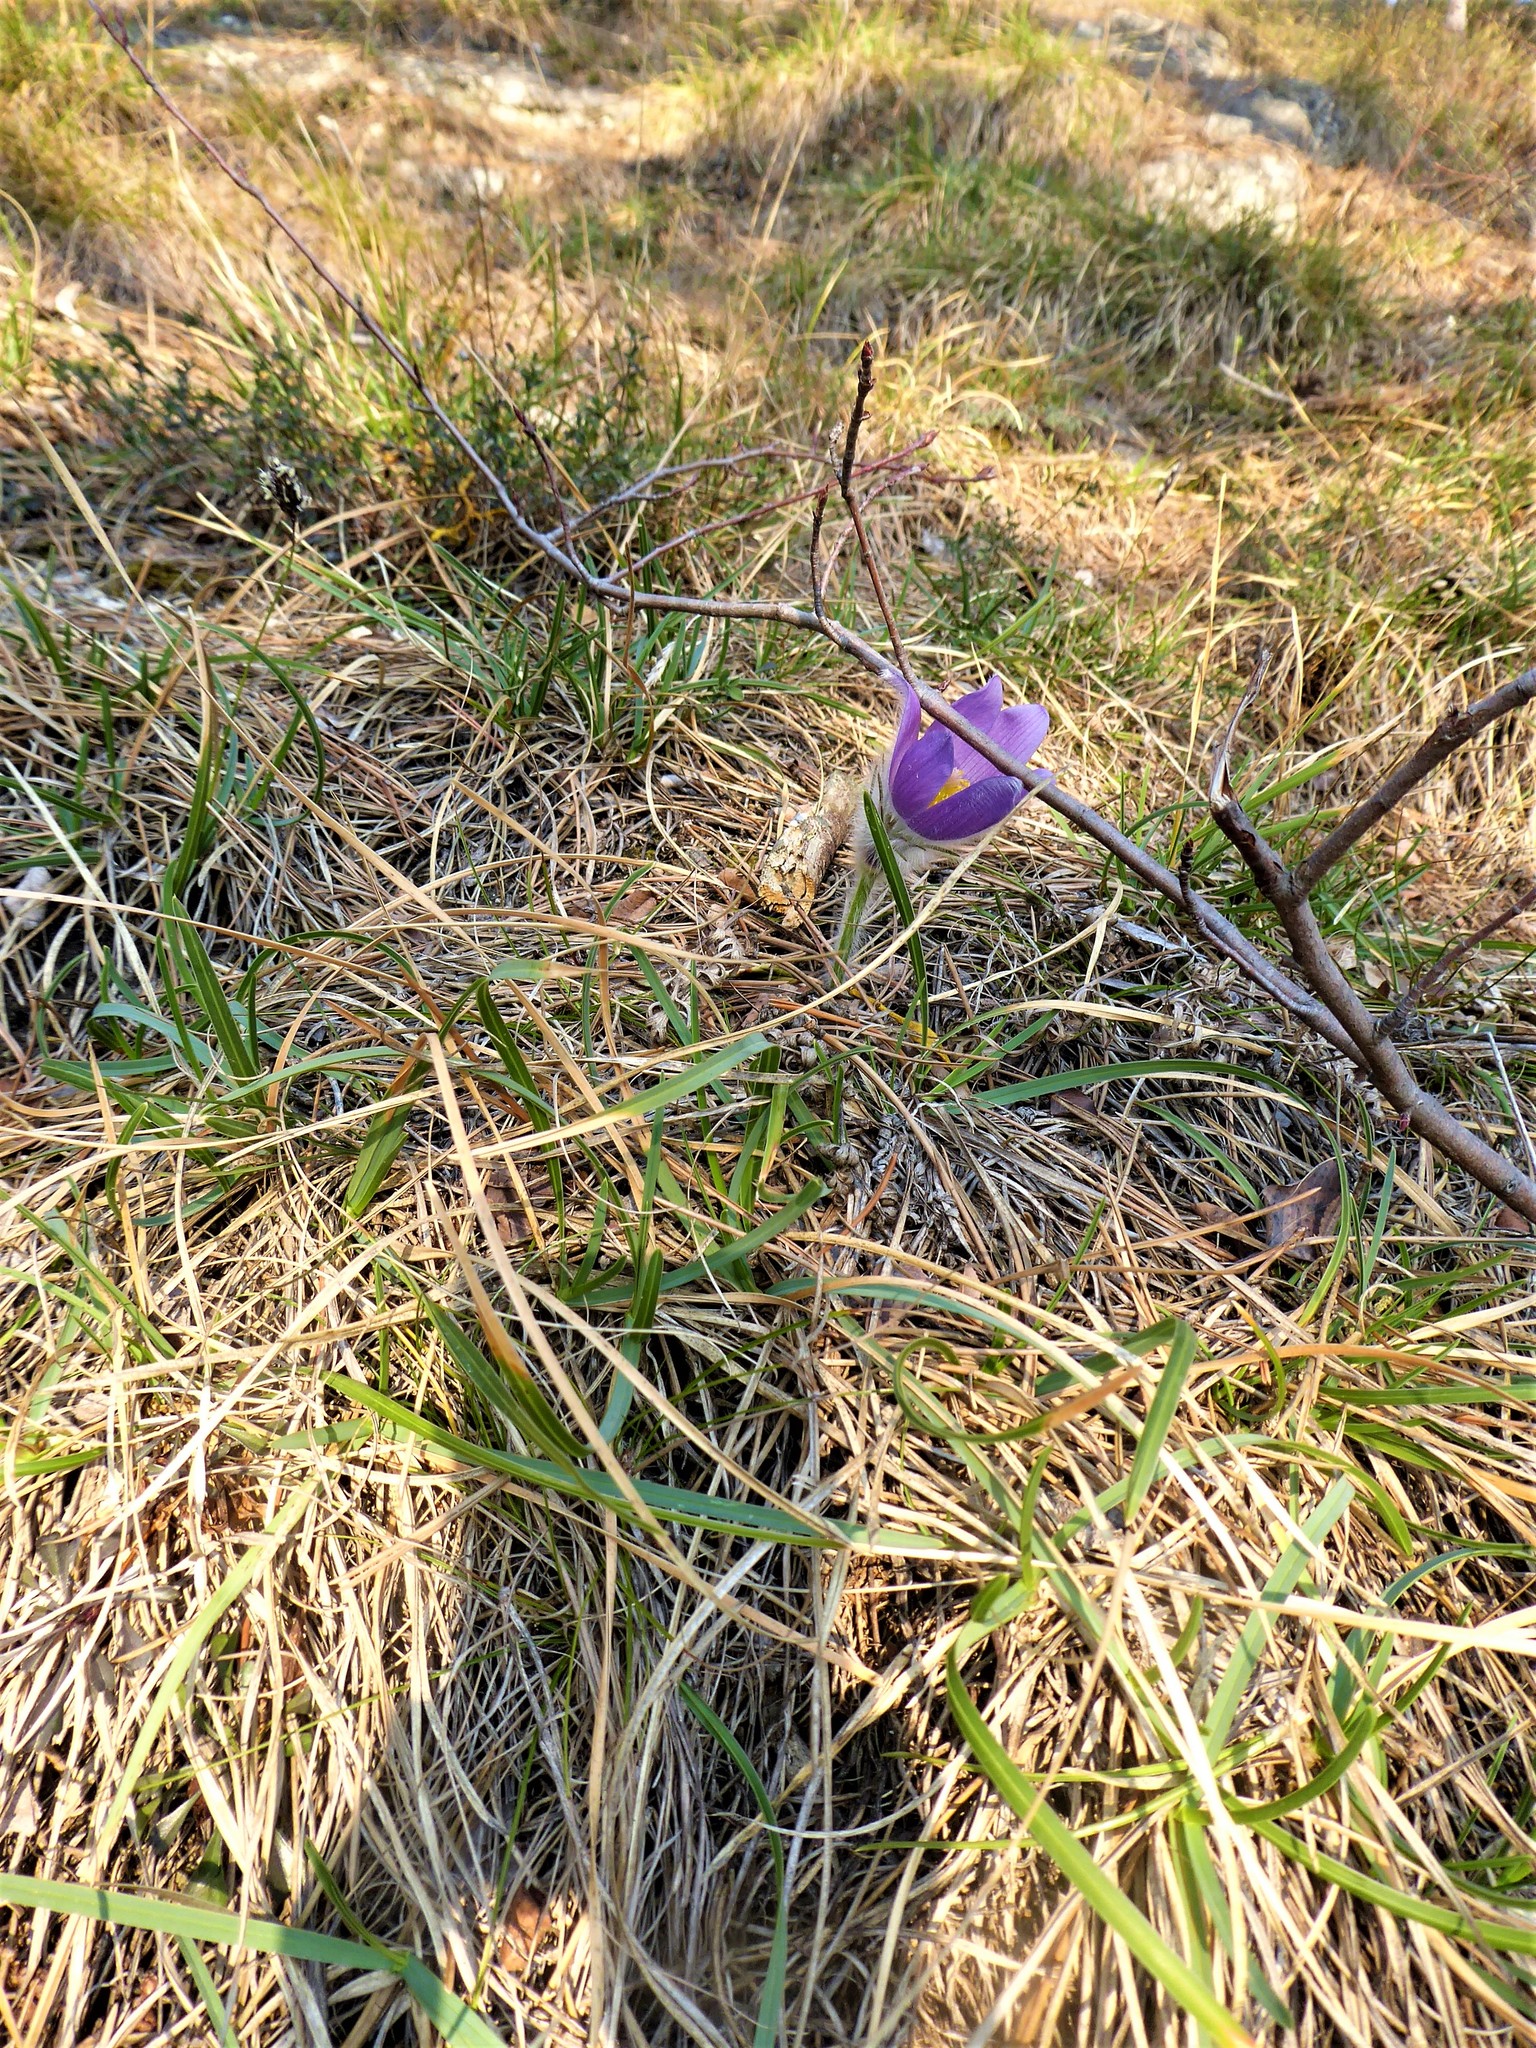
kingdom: Plantae
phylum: Tracheophyta
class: Magnoliopsida
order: Ranunculales
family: Ranunculaceae
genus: Pulsatilla
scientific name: Pulsatilla grandis
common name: Greater pasque flower
